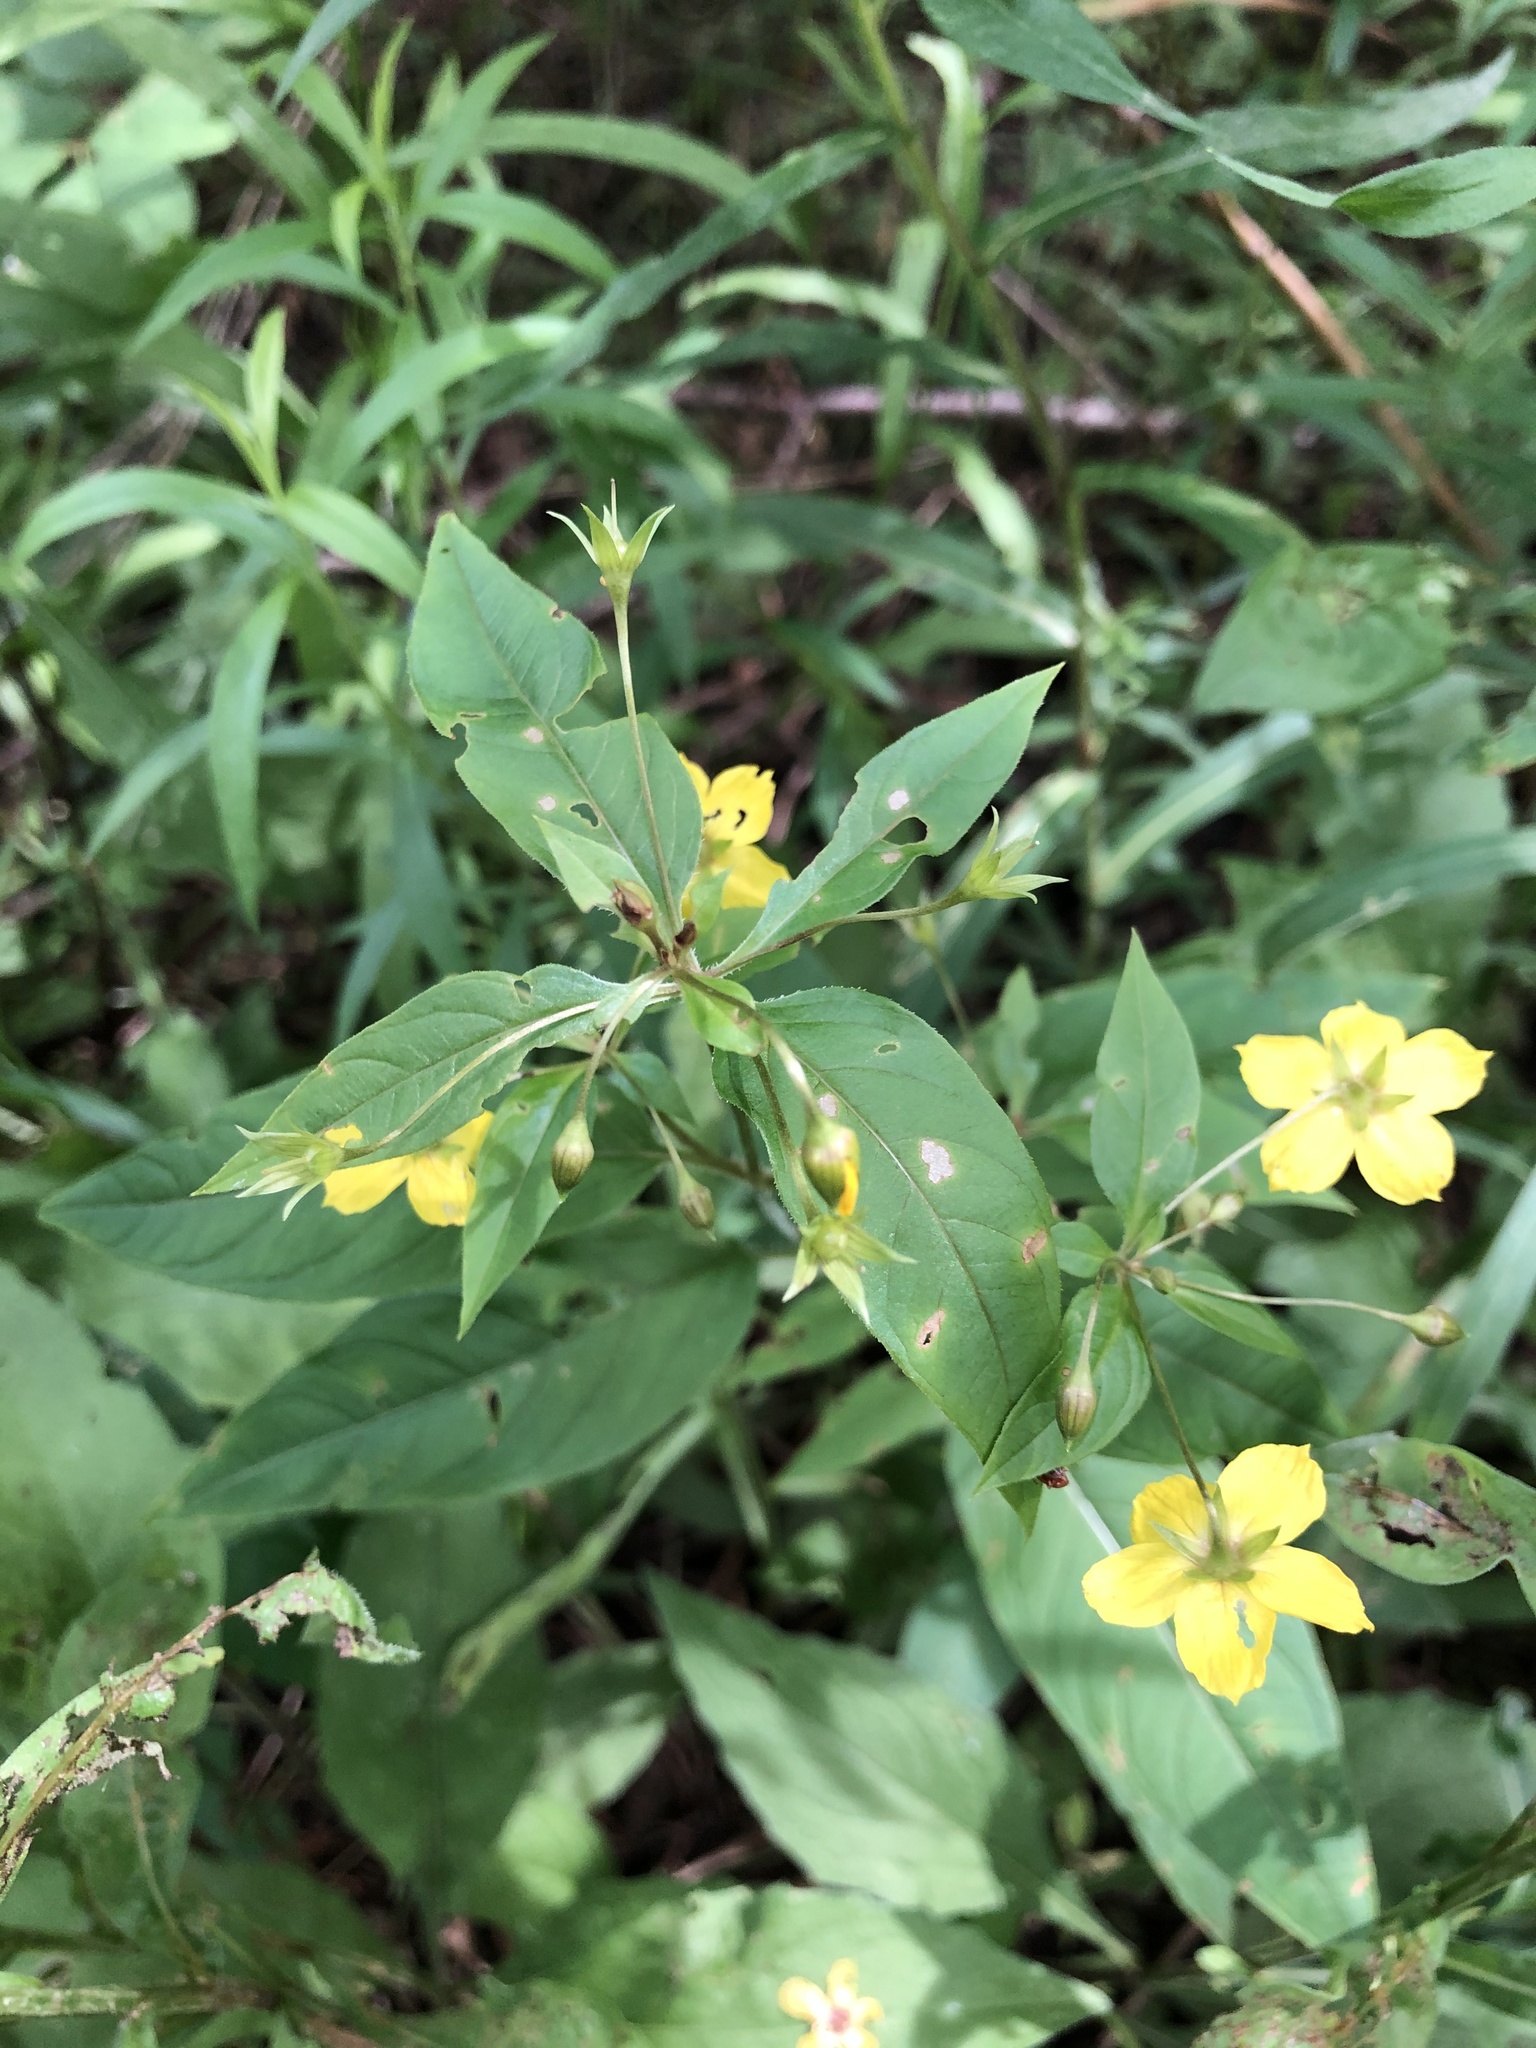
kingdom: Plantae
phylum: Tracheophyta
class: Magnoliopsida
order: Ericales
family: Primulaceae
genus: Lysimachia
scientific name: Lysimachia ciliata
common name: Fringed loosestrife
